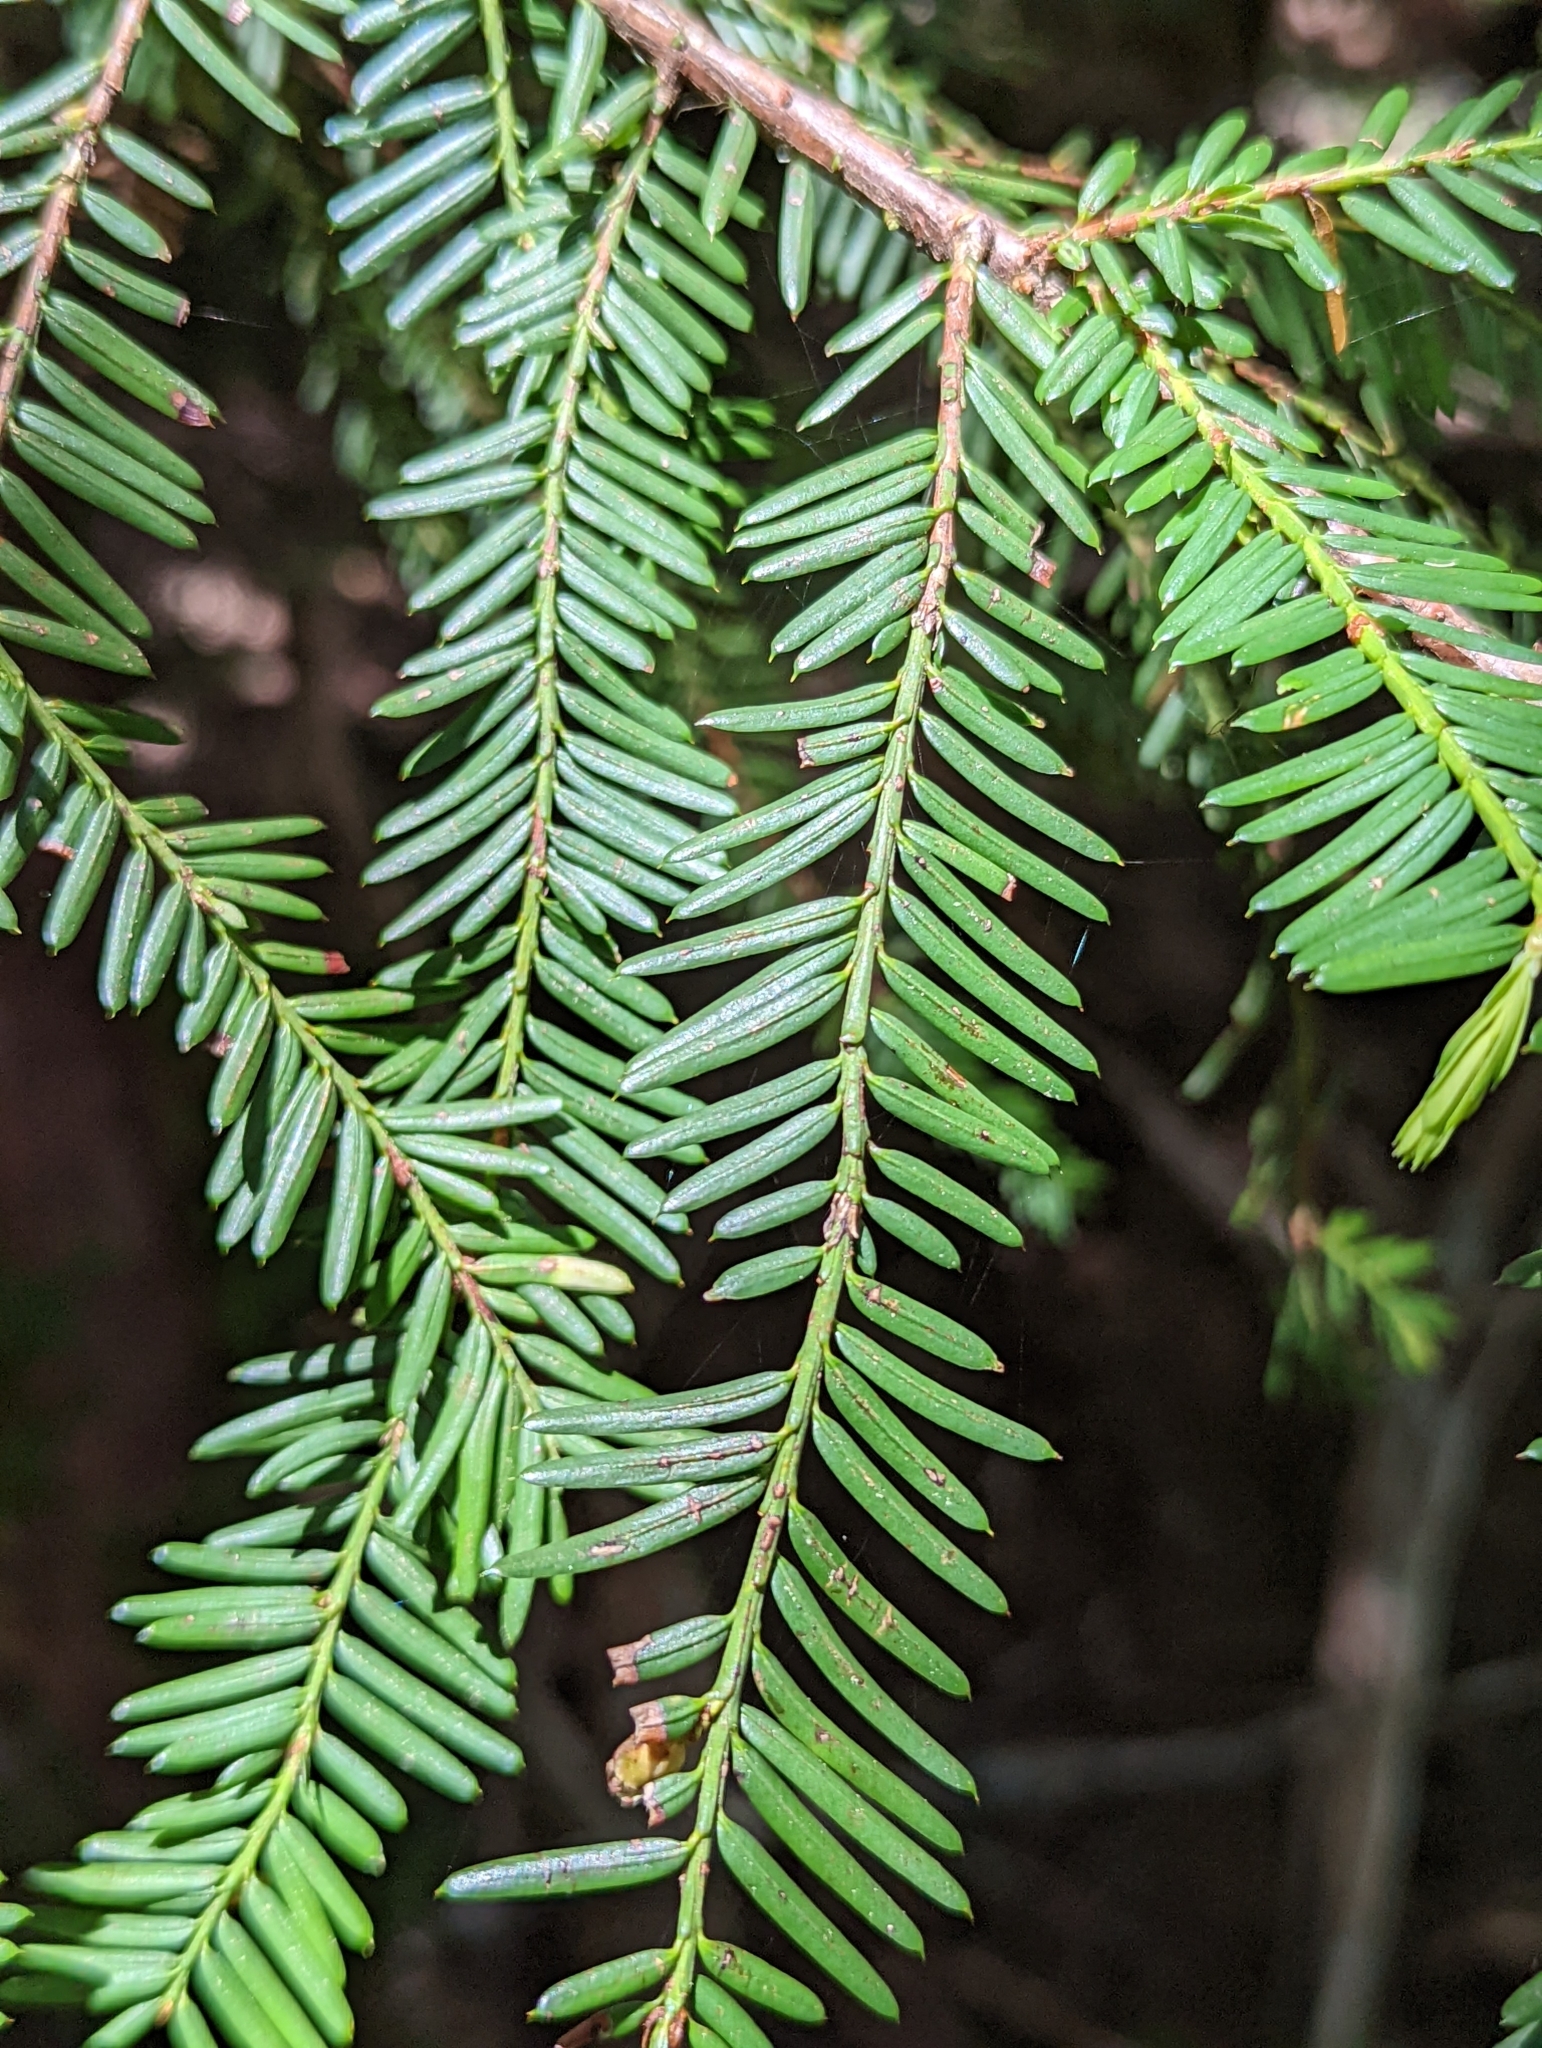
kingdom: Plantae
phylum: Tracheophyta
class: Pinopsida
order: Pinales
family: Taxaceae
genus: Taxus
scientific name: Taxus brevifolia
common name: Pacific yew
